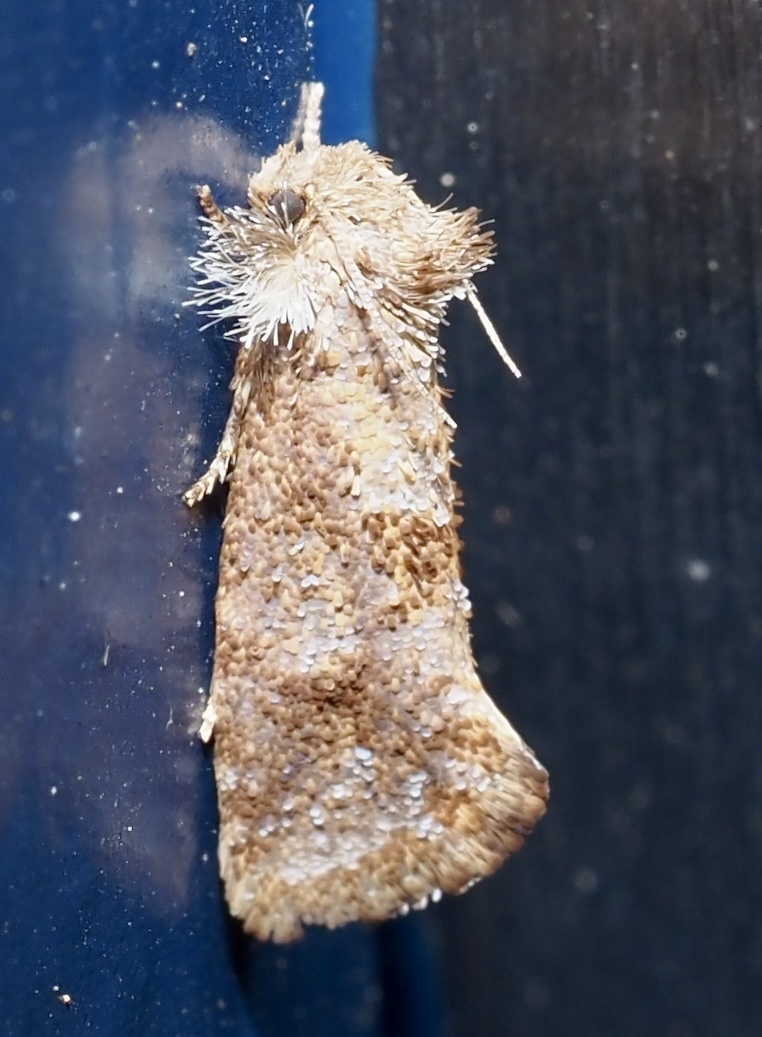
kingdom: Animalia
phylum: Arthropoda
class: Insecta
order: Lepidoptera
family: Tineidae
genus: Acrolophus
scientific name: Acrolophus panamae
